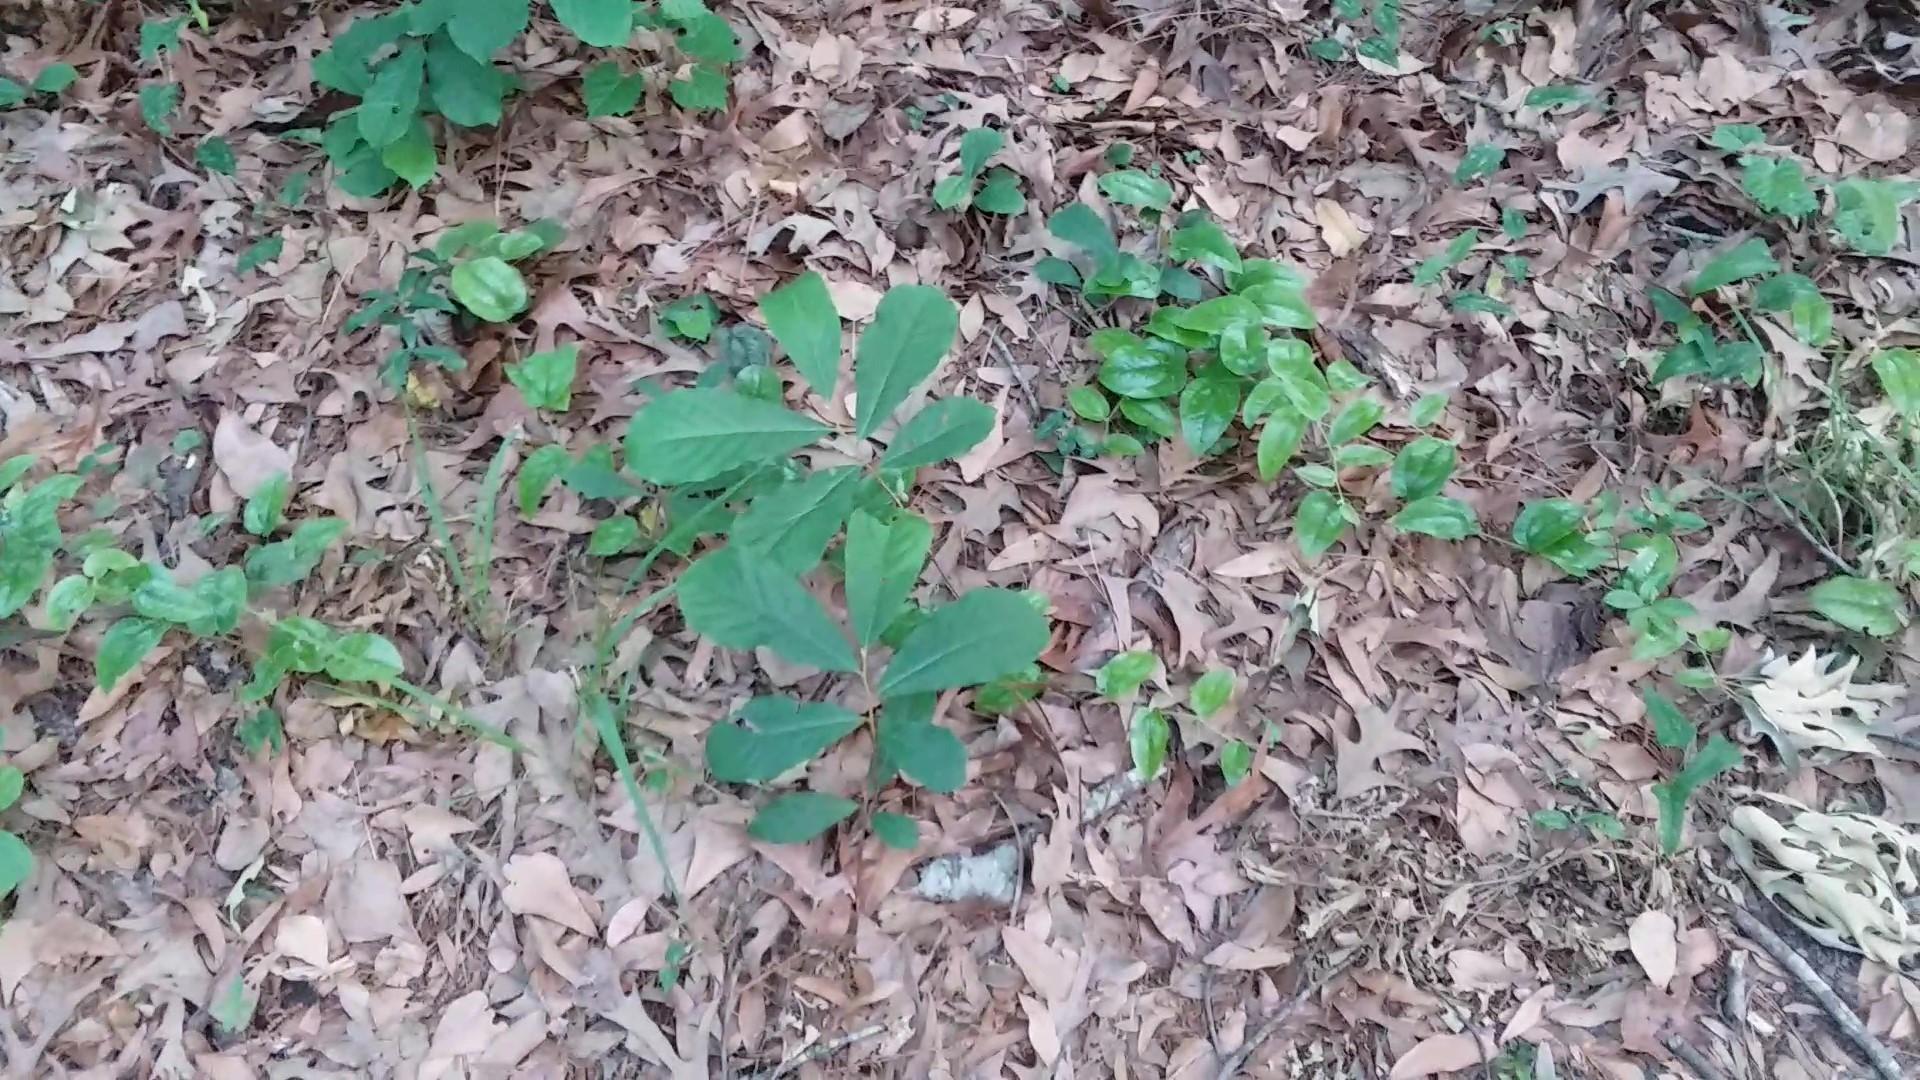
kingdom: Plantae
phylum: Tracheophyta
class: Magnoliopsida
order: Magnoliales
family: Annonaceae
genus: Asimina
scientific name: Asimina parviflora
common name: Dwarf pawpaw
